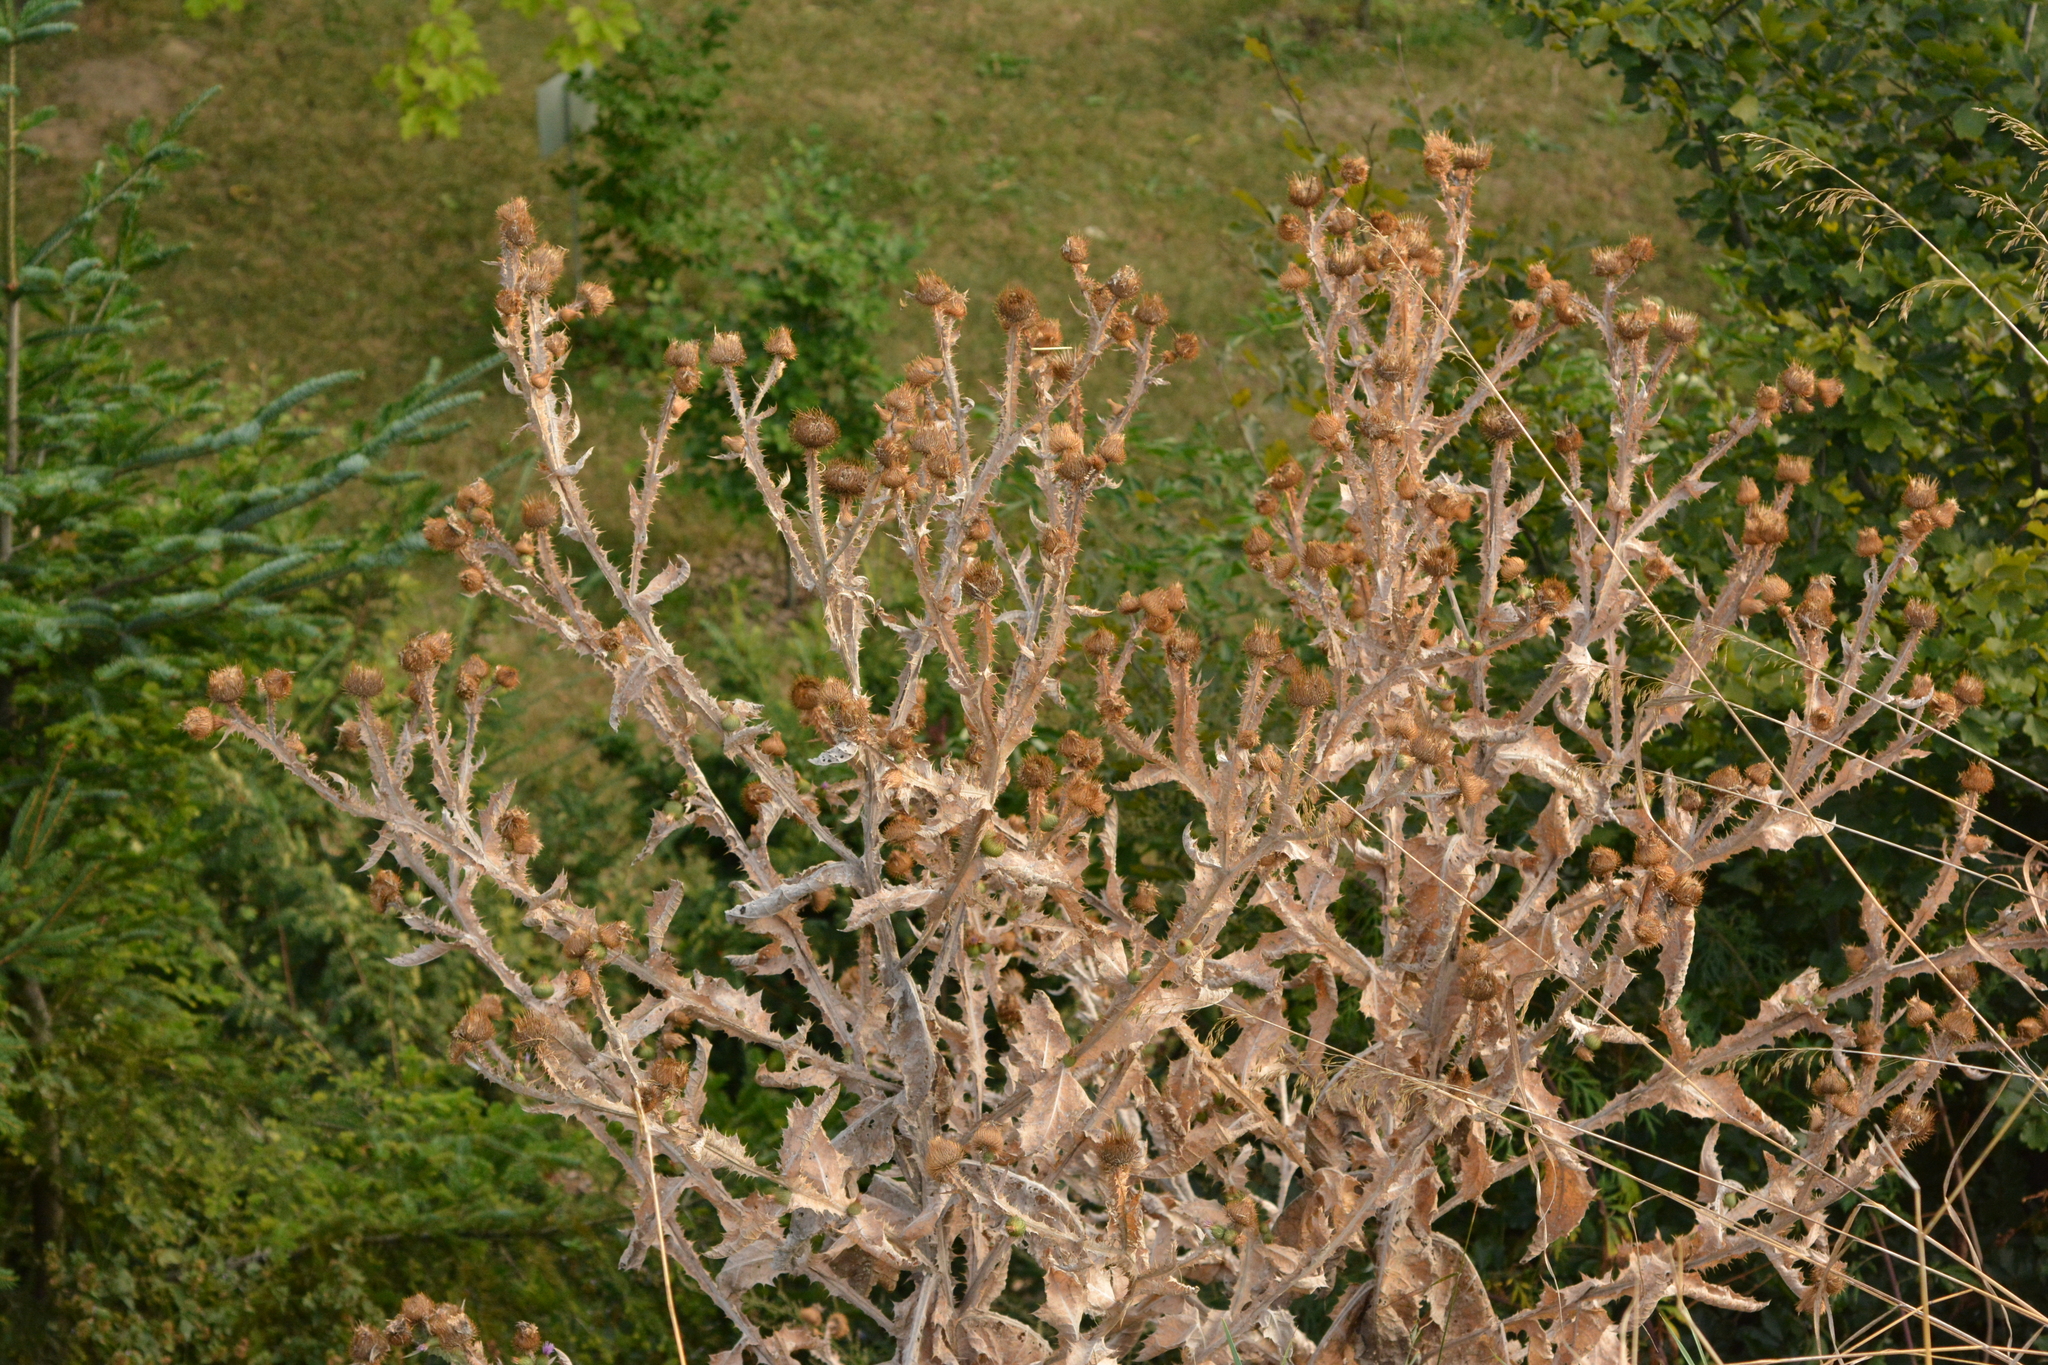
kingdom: Plantae
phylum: Tracheophyta
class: Magnoliopsida
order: Asterales
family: Asteraceae
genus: Onopordum
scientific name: Onopordum acanthium
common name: Scotch thistle
